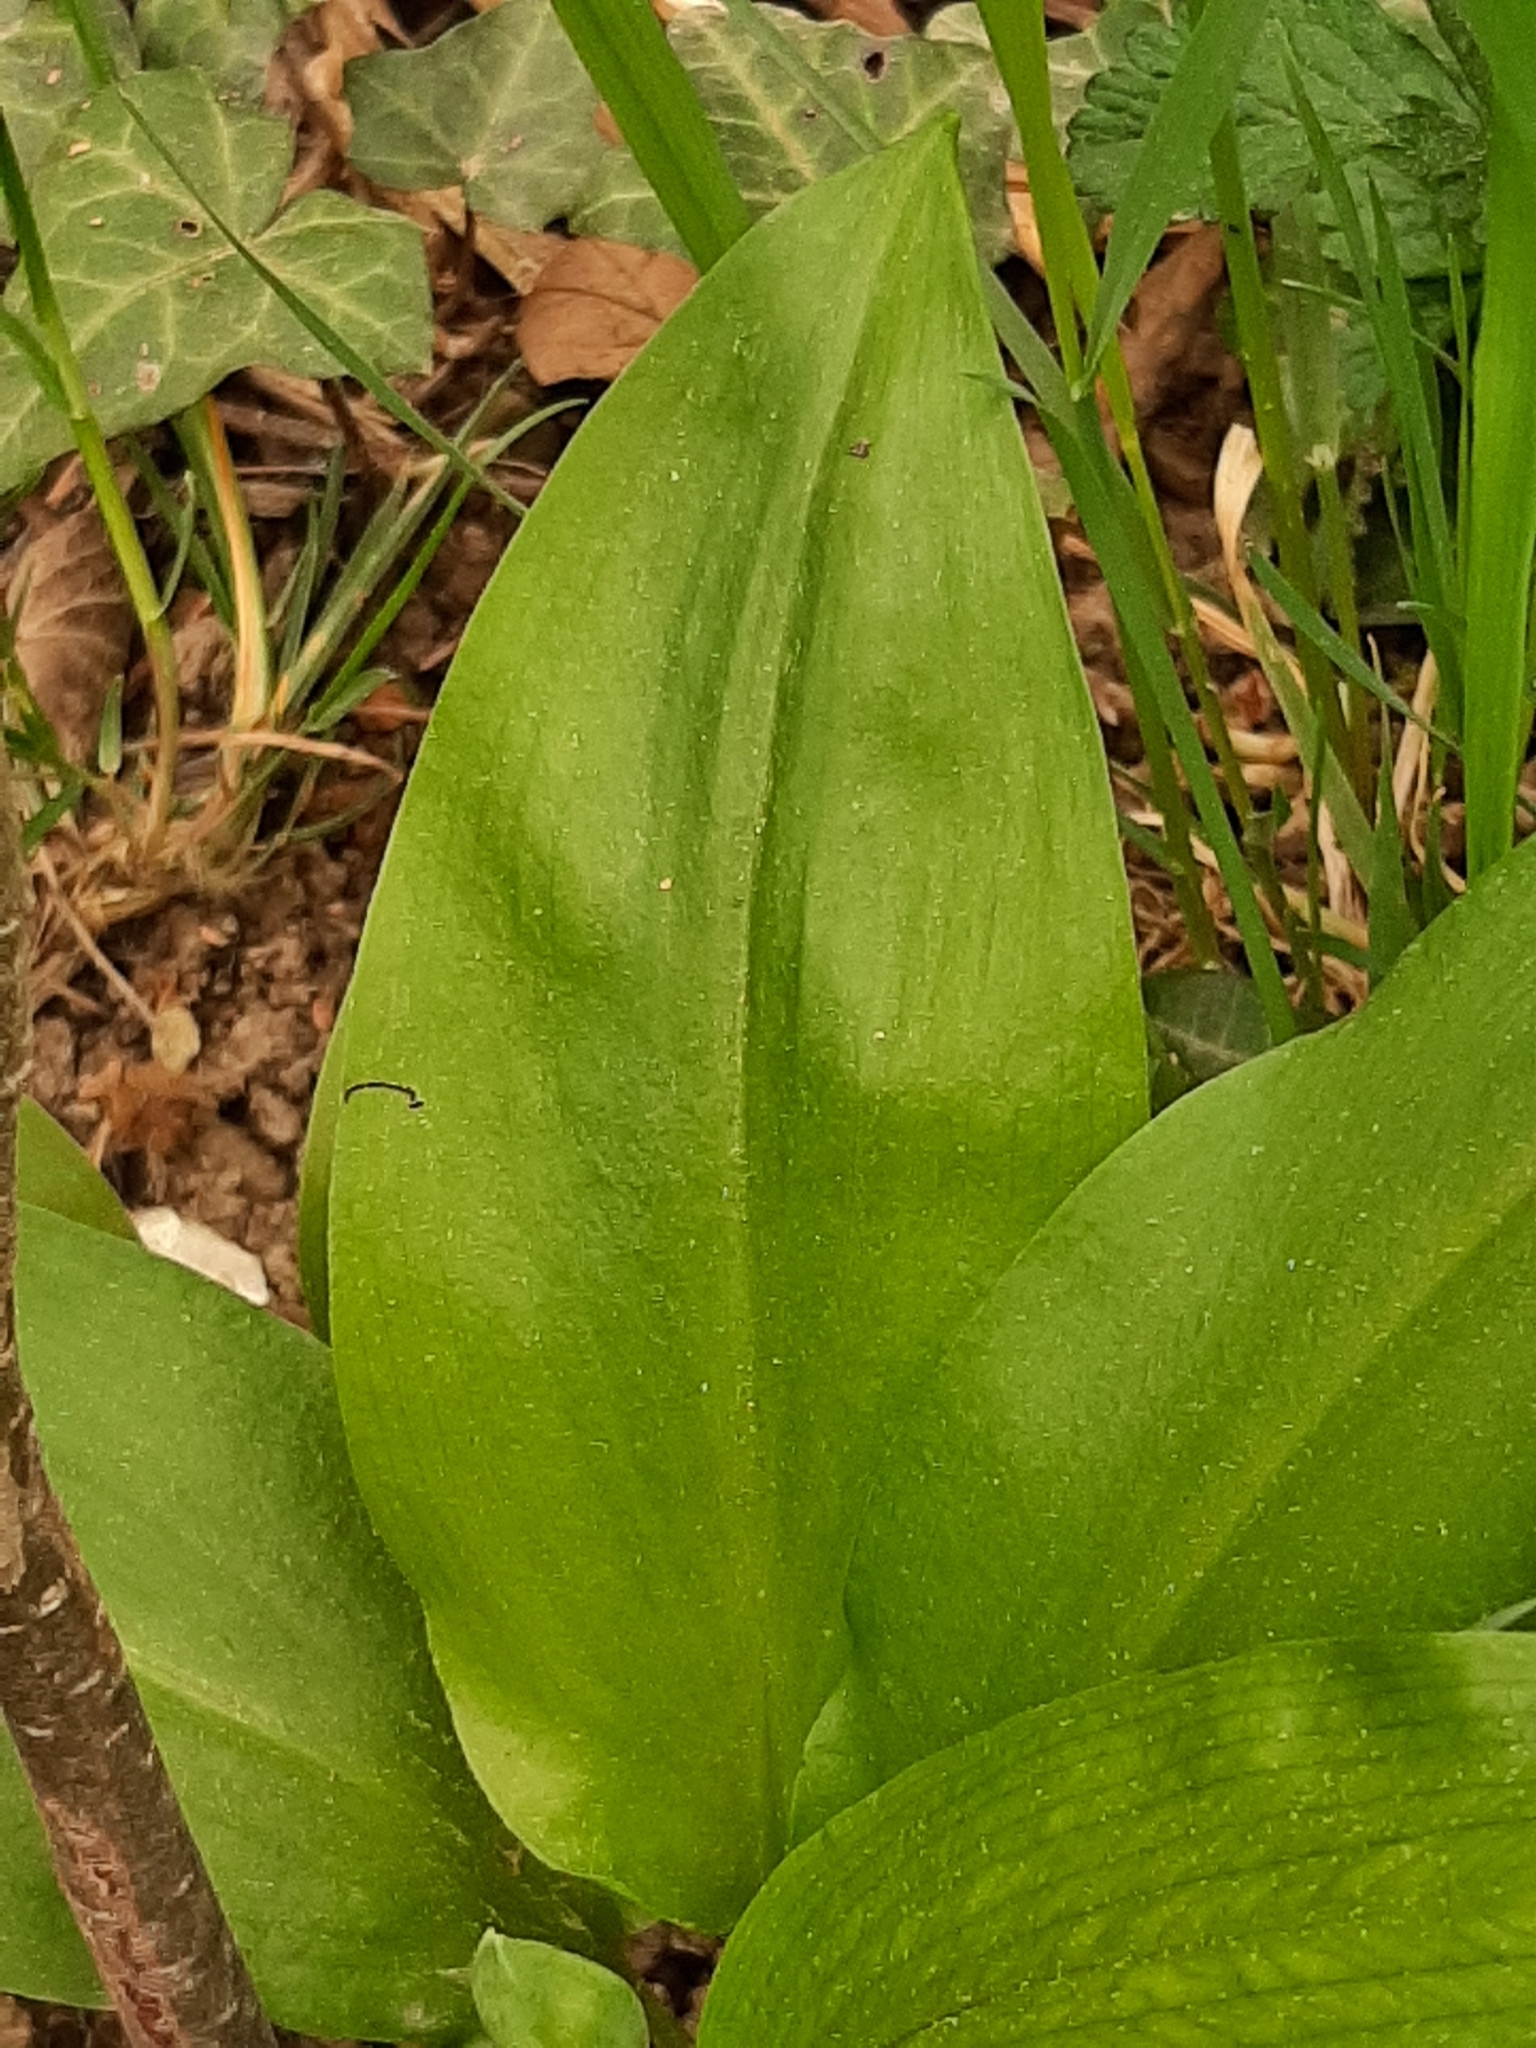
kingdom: Plantae
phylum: Tracheophyta
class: Liliopsida
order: Asparagales
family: Amaryllidaceae
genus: Allium
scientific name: Allium ursinum
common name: Ramsons
